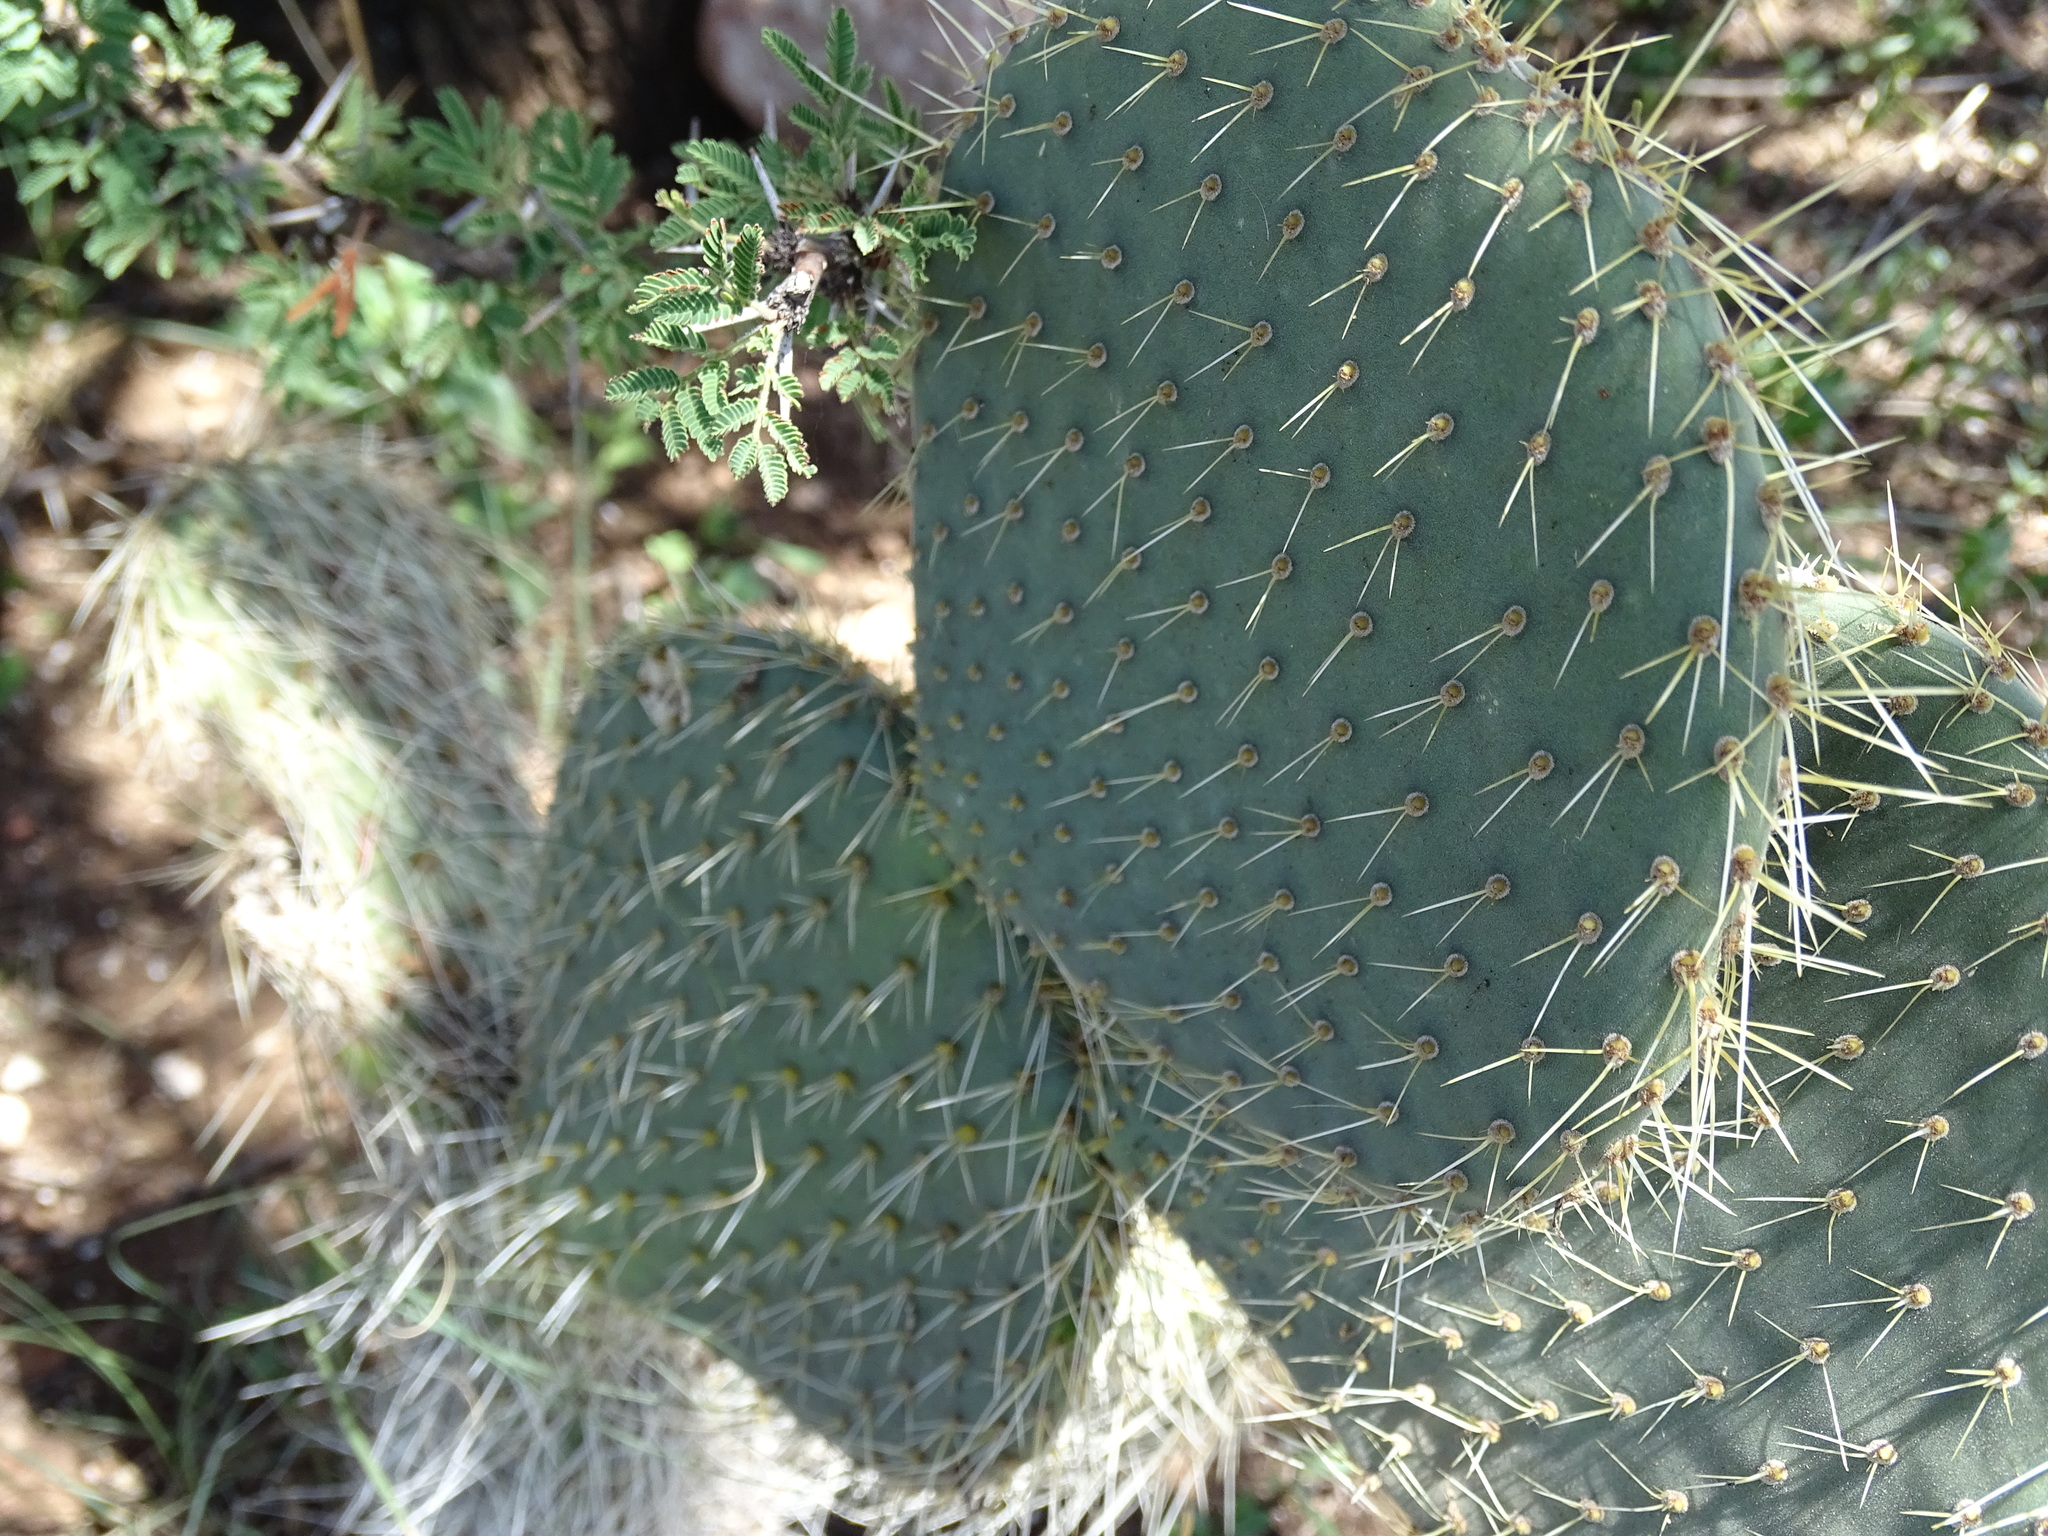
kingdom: Plantae
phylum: Tracheophyta
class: Magnoliopsida
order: Caryophyllales
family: Cactaceae
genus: Opuntia
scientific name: Opuntia leucotricha
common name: Arborescent pricklypear
